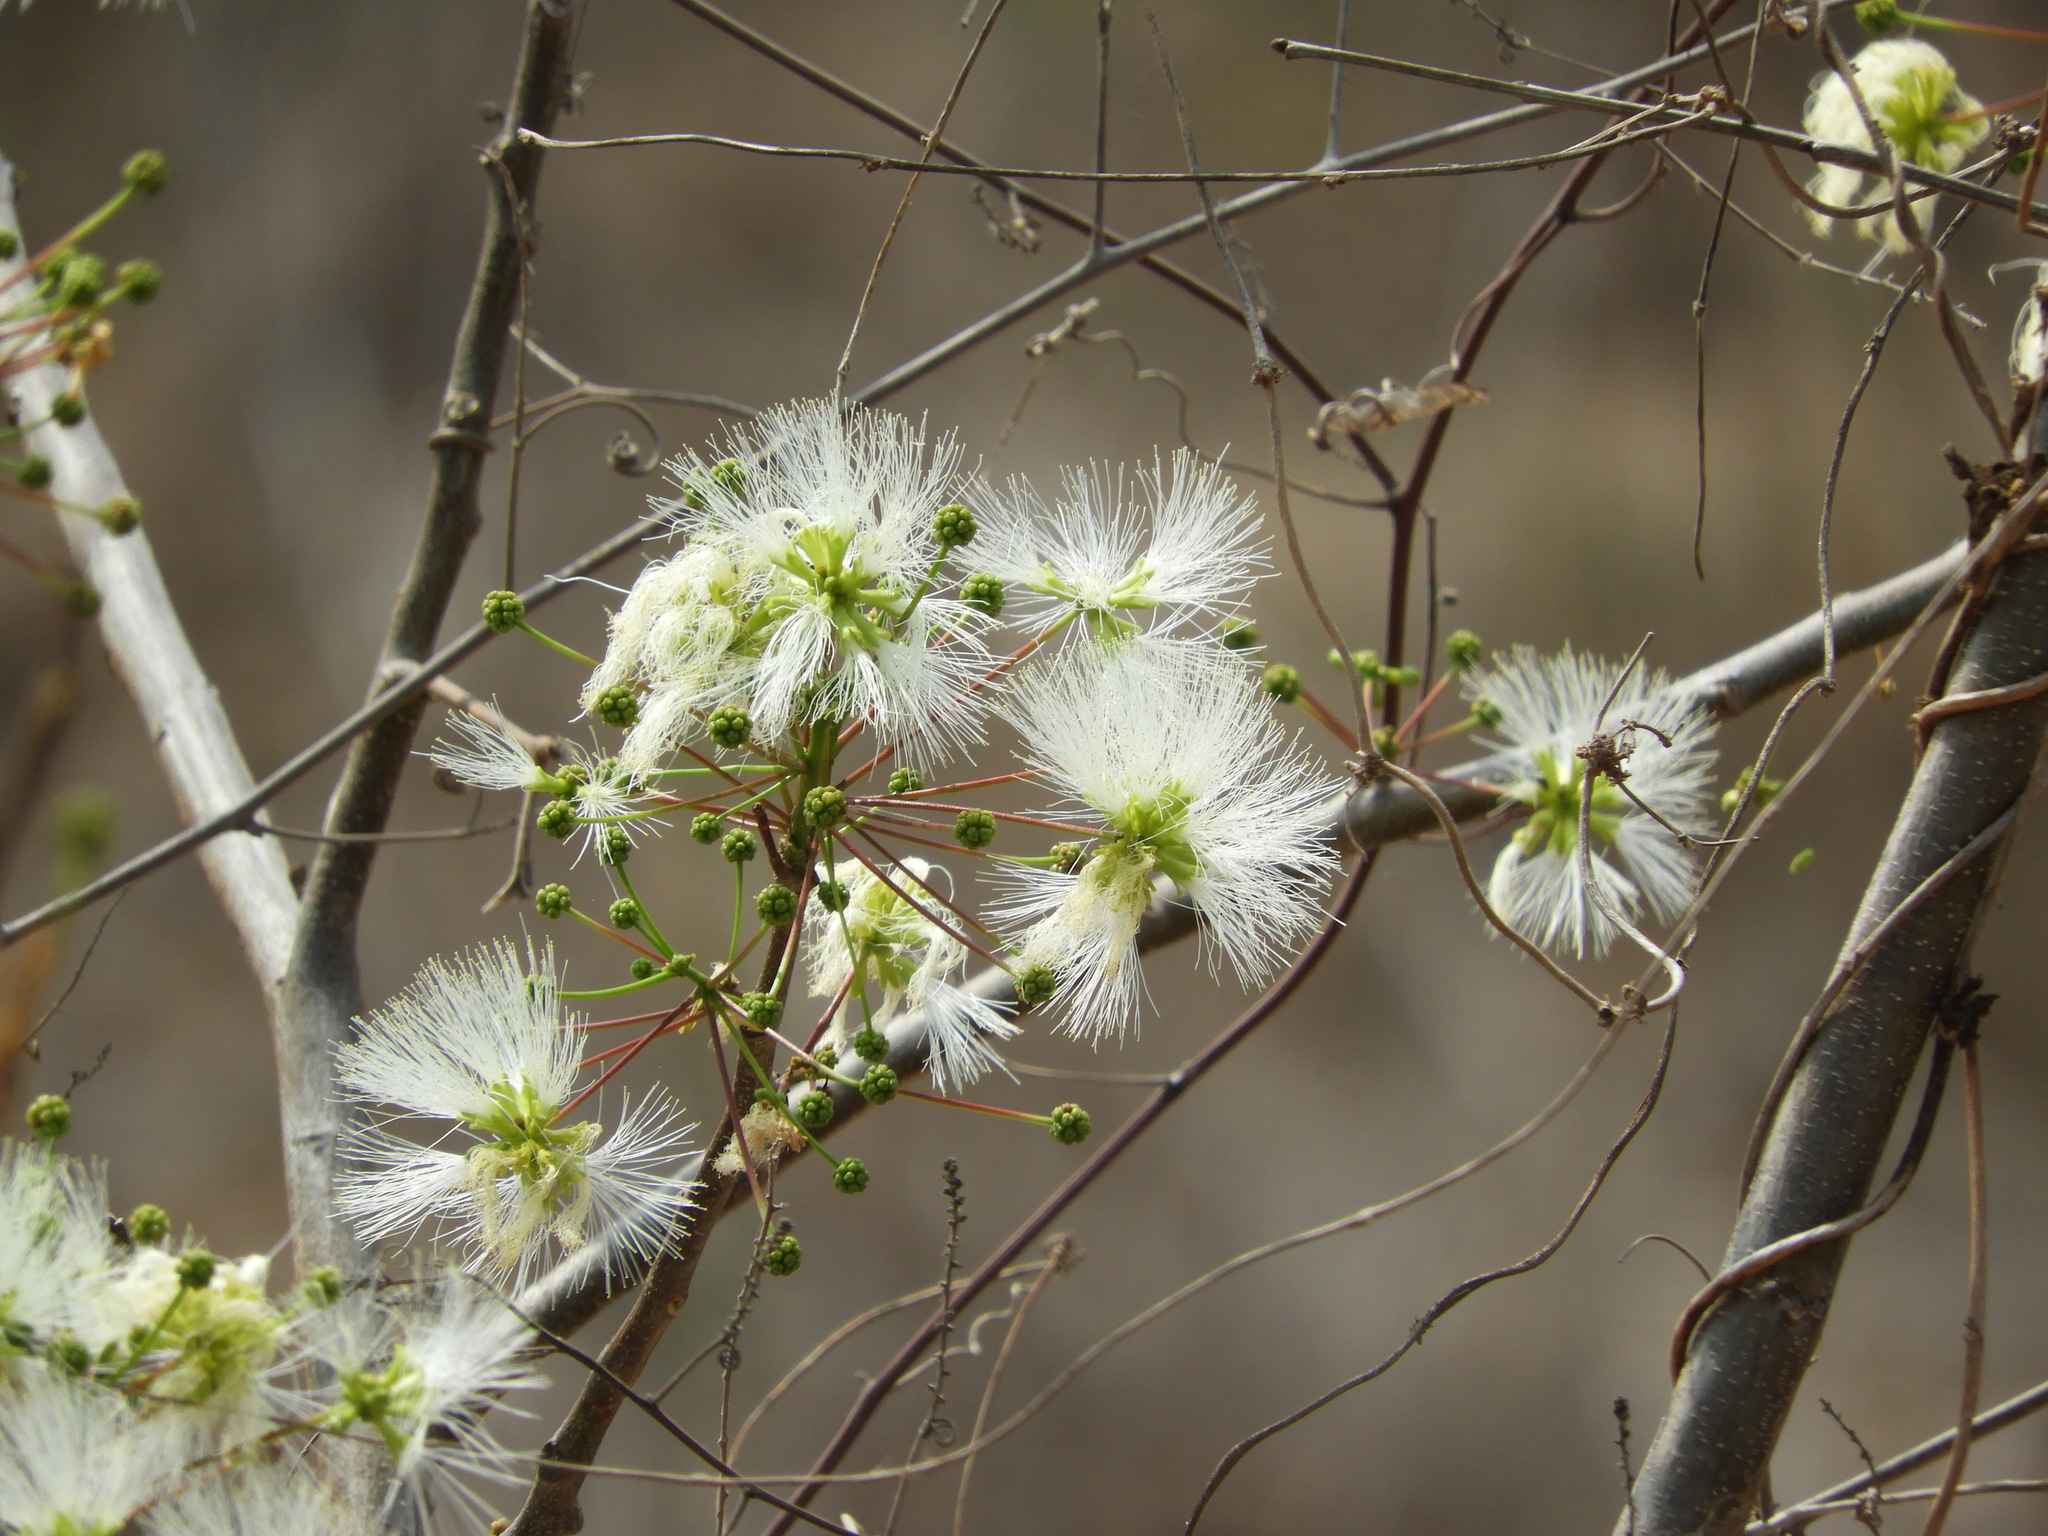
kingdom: Plantae
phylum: Tracheophyta
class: Magnoliopsida
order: Fabales
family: Fabaceae
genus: Albizia
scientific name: Albizia occidentalis
